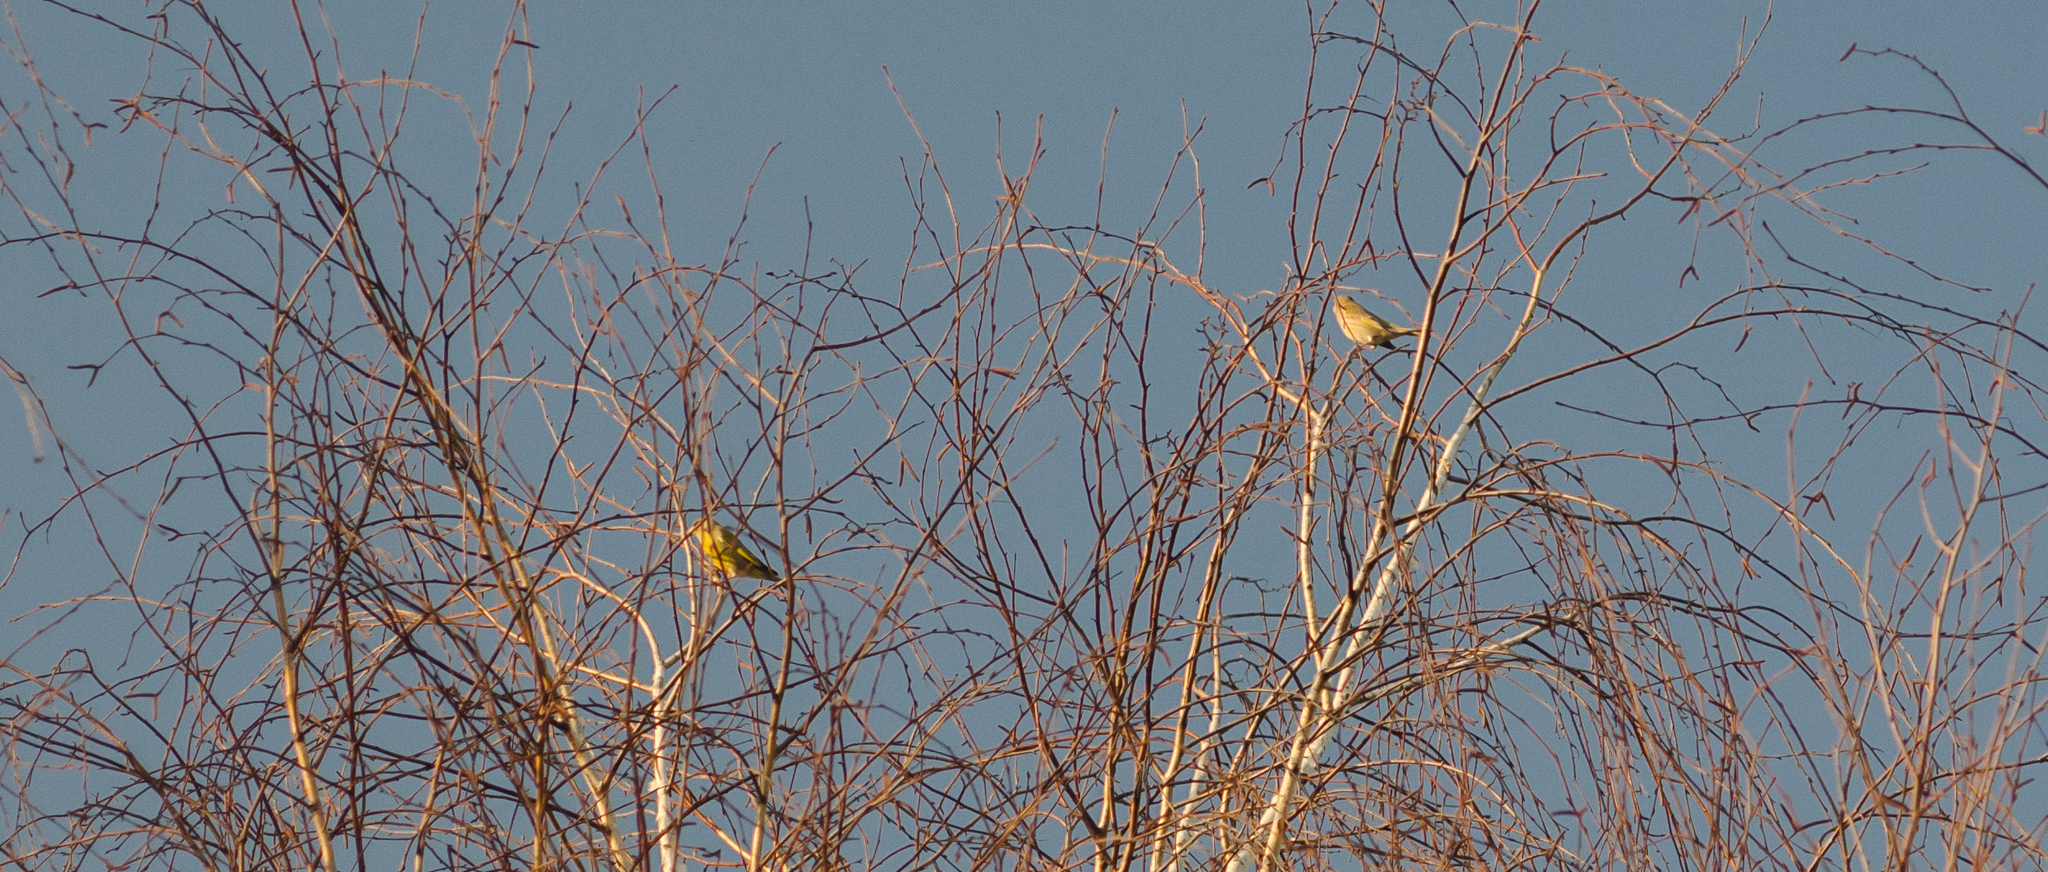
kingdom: Plantae
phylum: Tracheophyta
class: Liliopsida
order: Poales
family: Poaceae
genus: Chloris
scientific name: Chloris chloris
